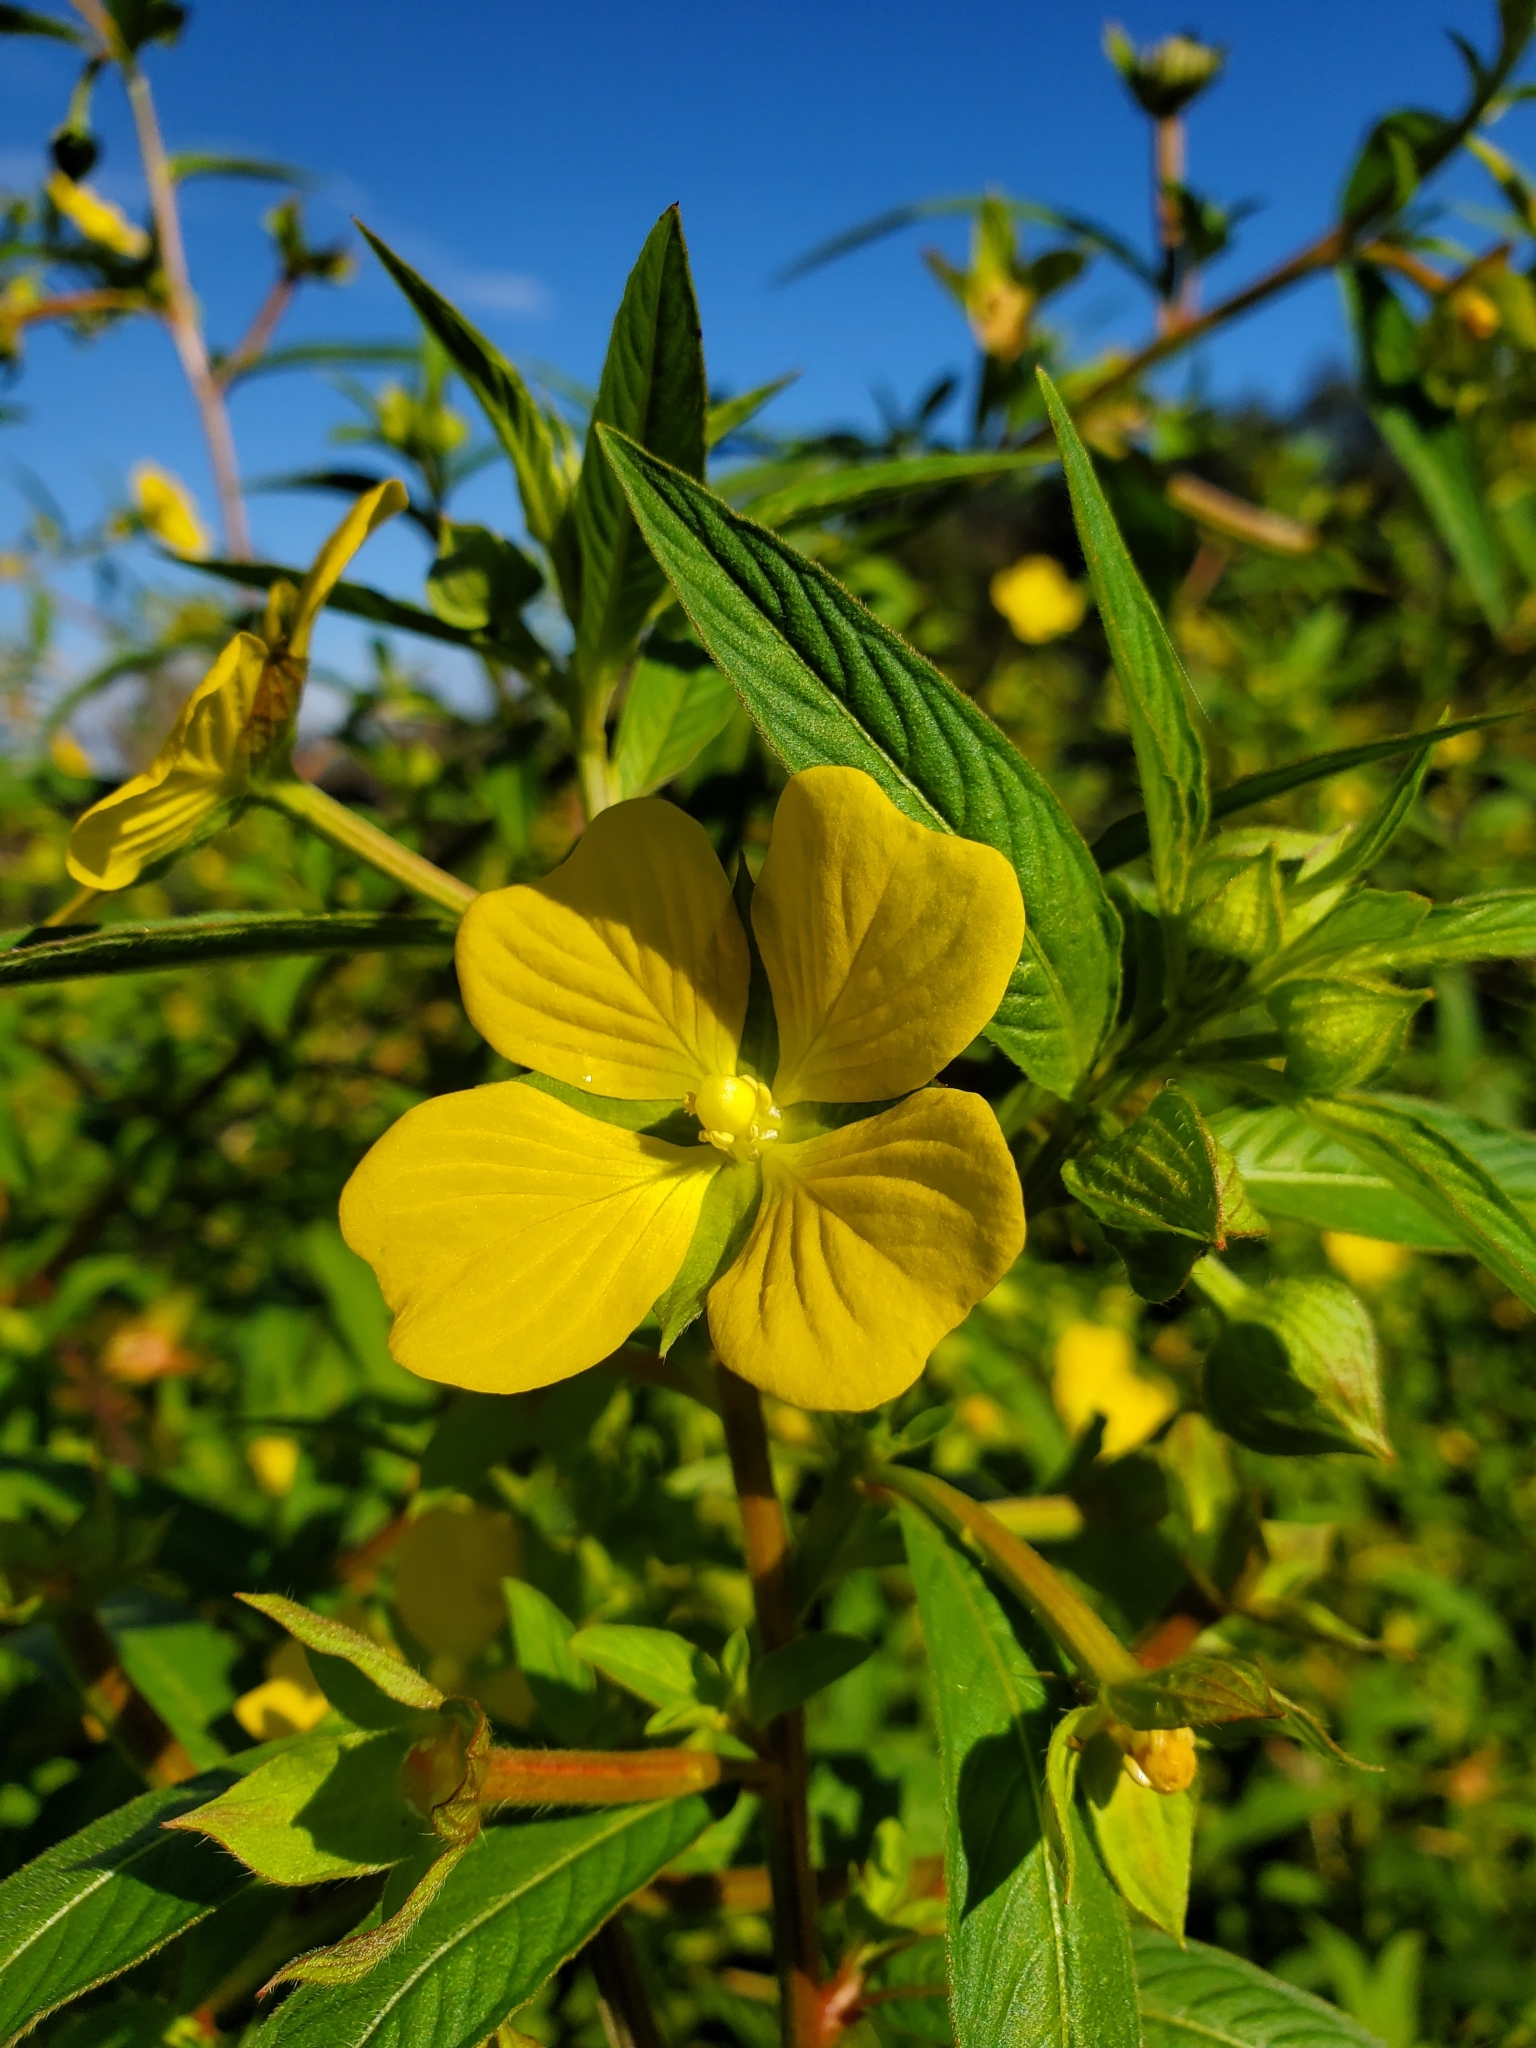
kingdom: Plantae
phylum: Tracheophyta
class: Magnoliopsida
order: Myrtales
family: Onagraceae
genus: Ludwigia
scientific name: Ludwigia octovalvis
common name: Water-primrose
